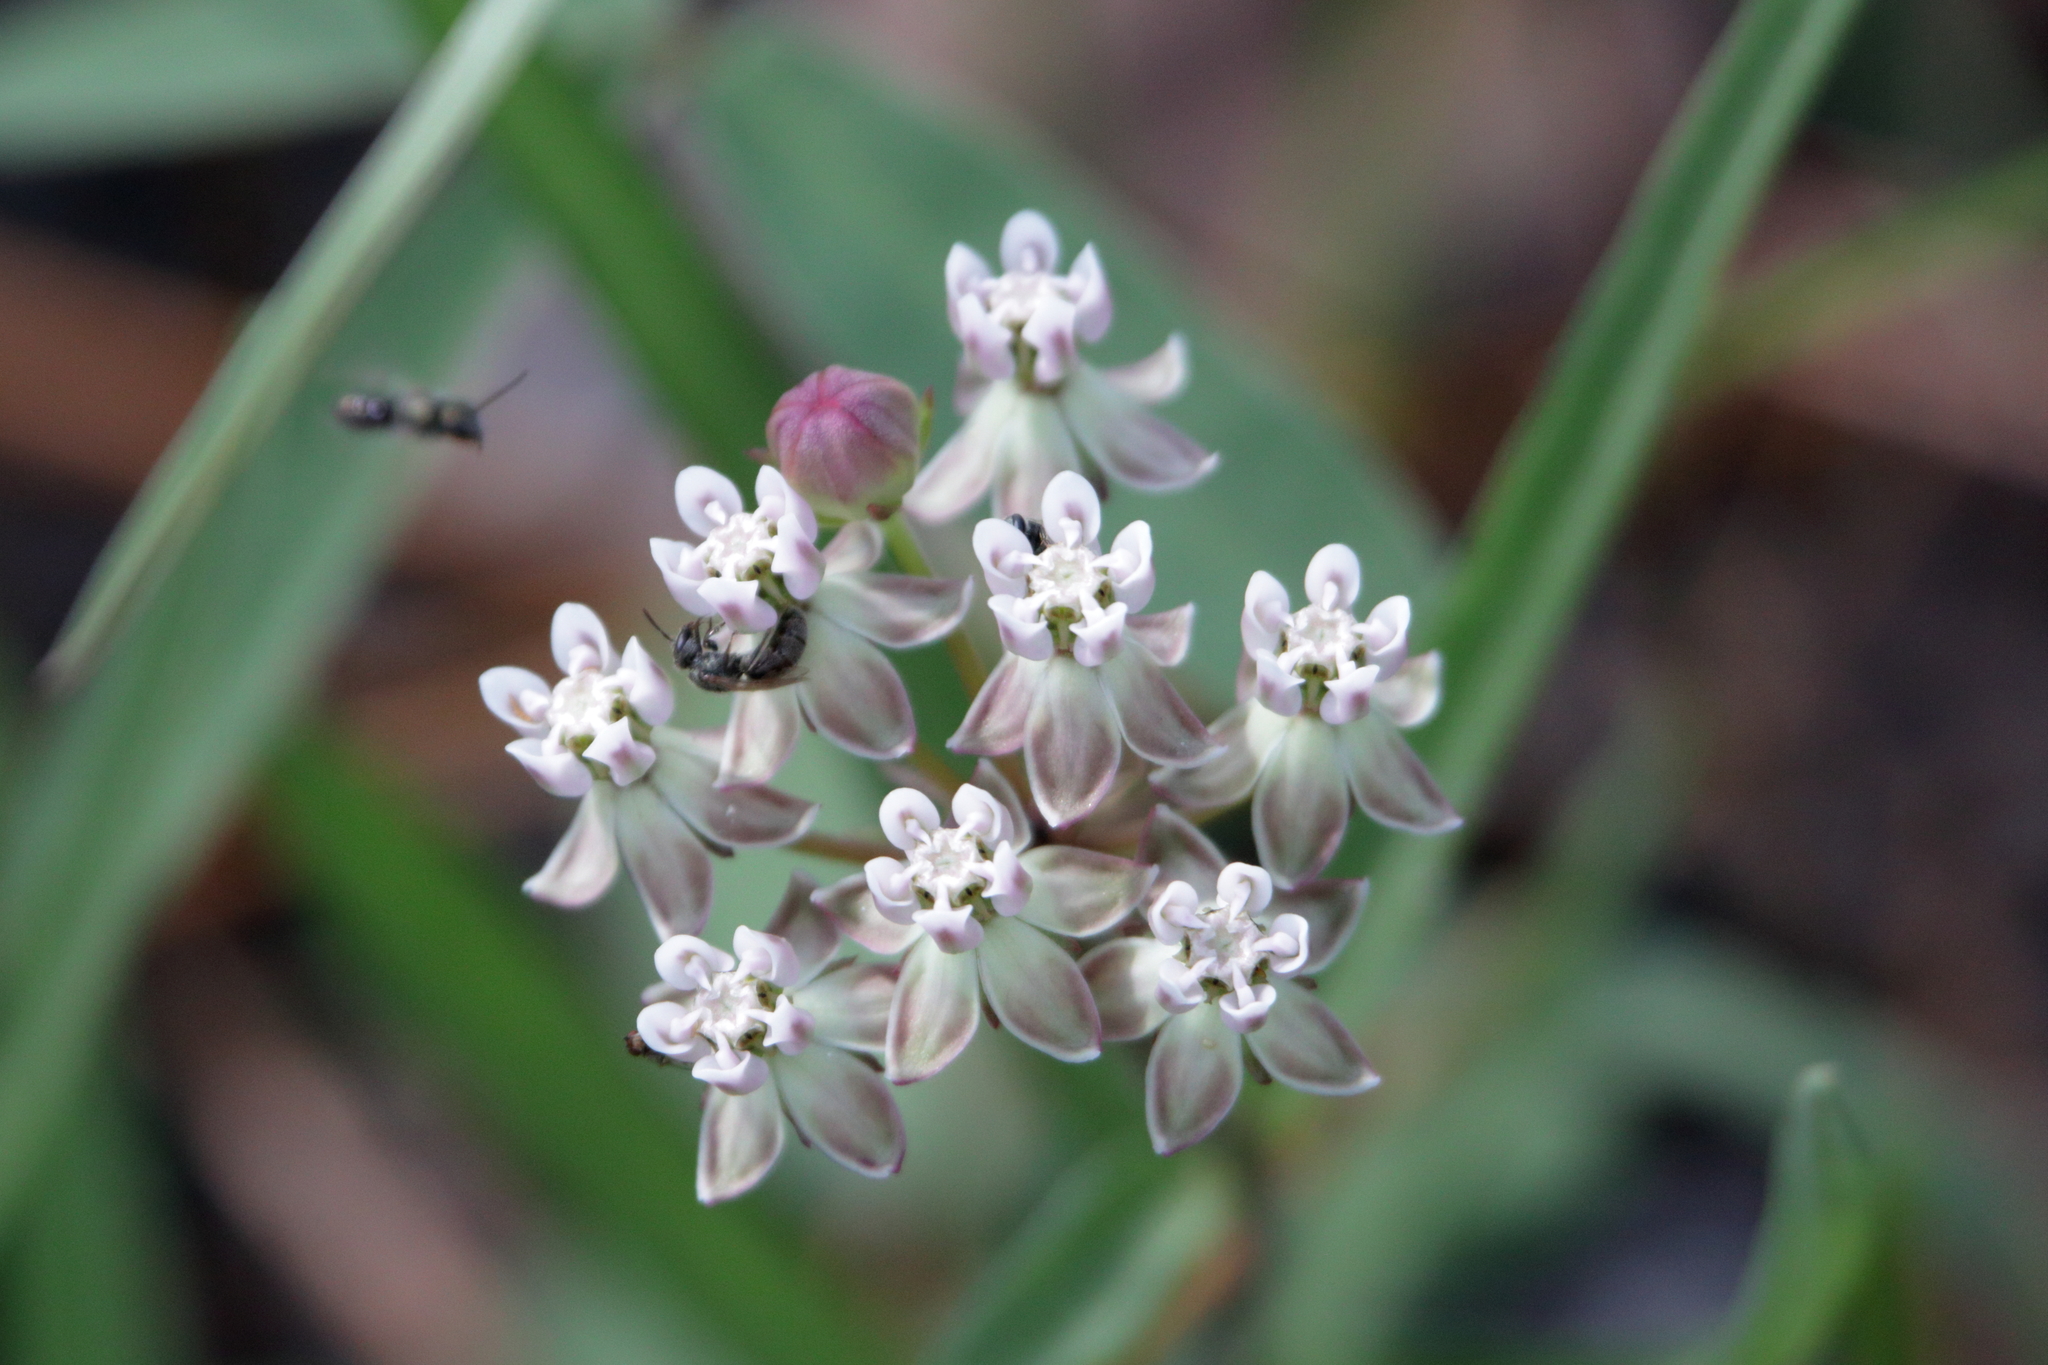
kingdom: Plantae
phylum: Tracheophyta
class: Magnoliopsida
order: Gentianales
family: Apocynaceae
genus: Asclepias
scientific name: Asclepias michauxii
